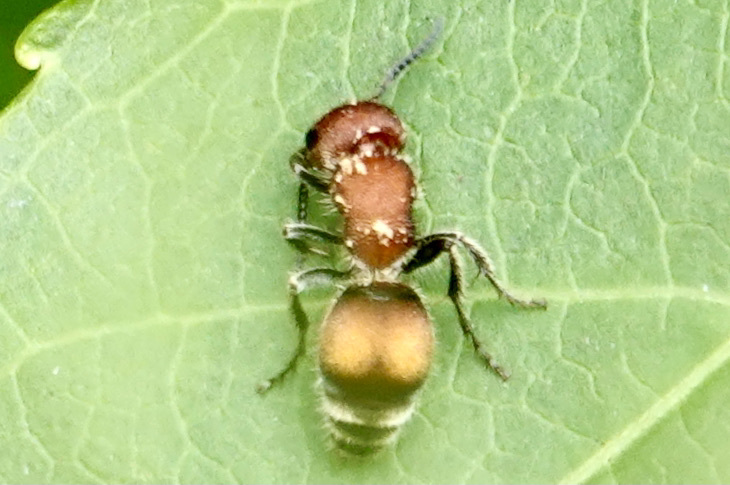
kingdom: Animalia
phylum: Arthropoda
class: Insecta
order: Hymenoptera
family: Mutillidae
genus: Pseudomethoca
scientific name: Pseudomethoca
